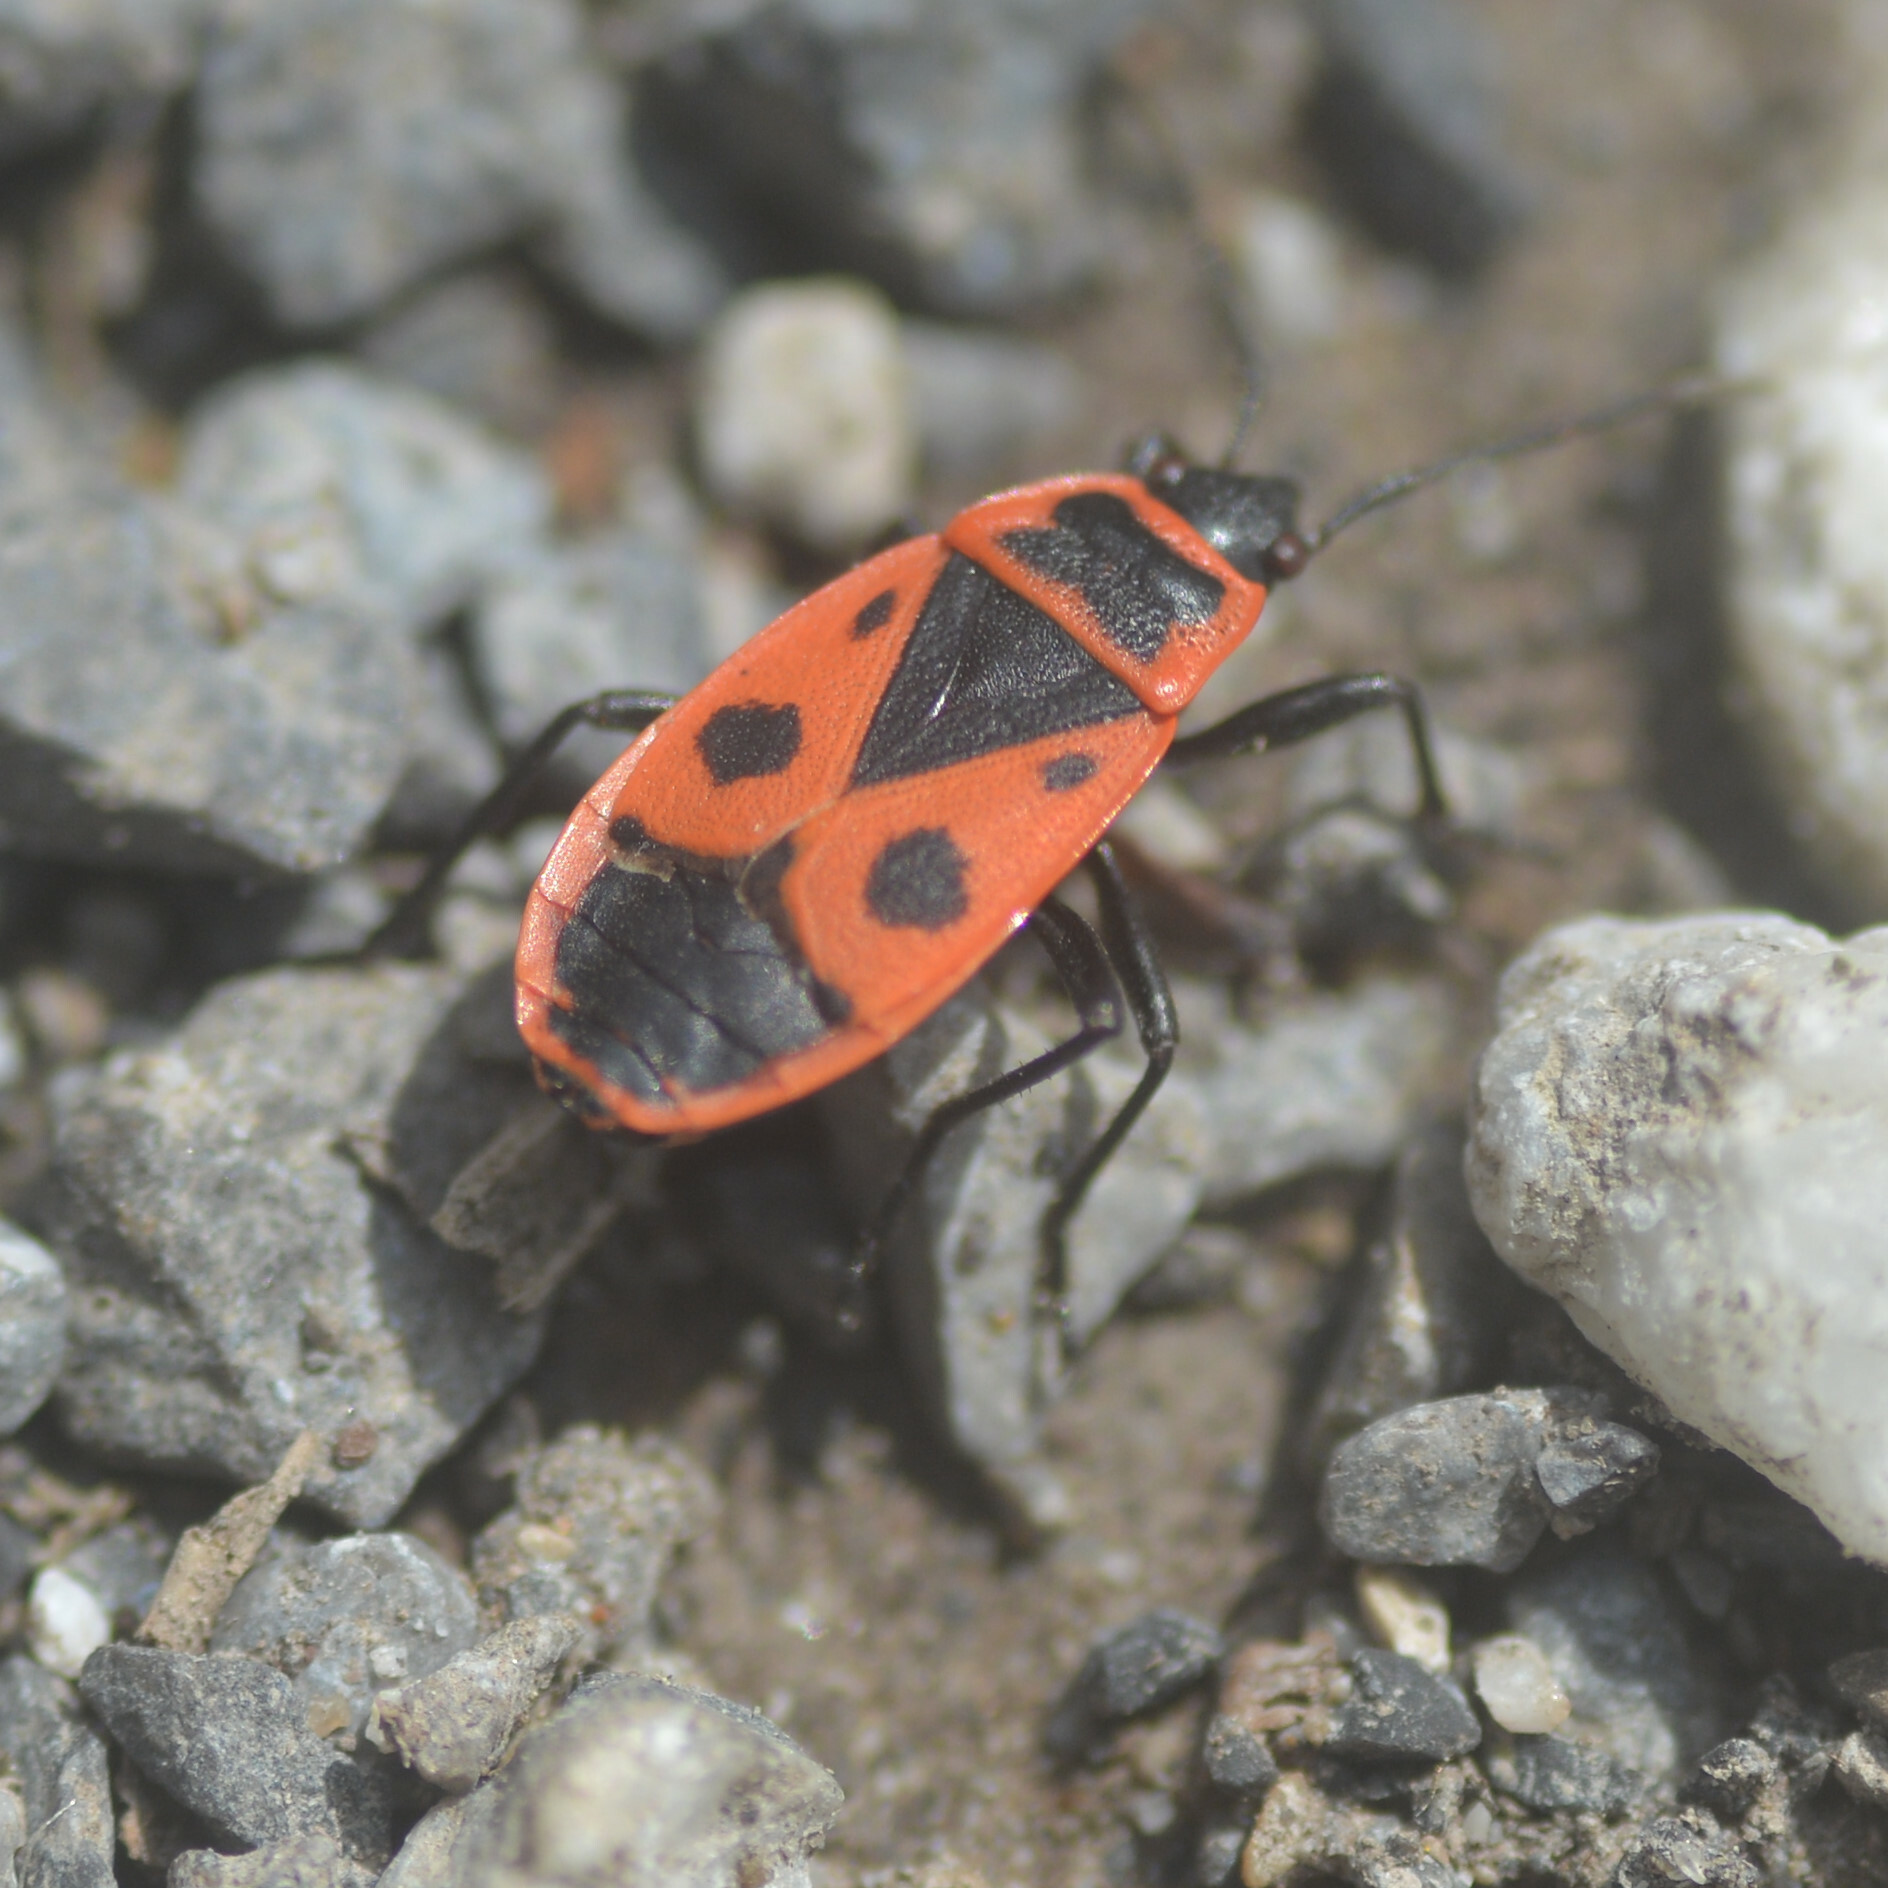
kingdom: Animalia
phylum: Arthropoda
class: Insecta
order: Hemiptera
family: Pyrrhocoridae
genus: Pyrrhocoris
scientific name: Pyrrhocoris apterus
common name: Firebug
